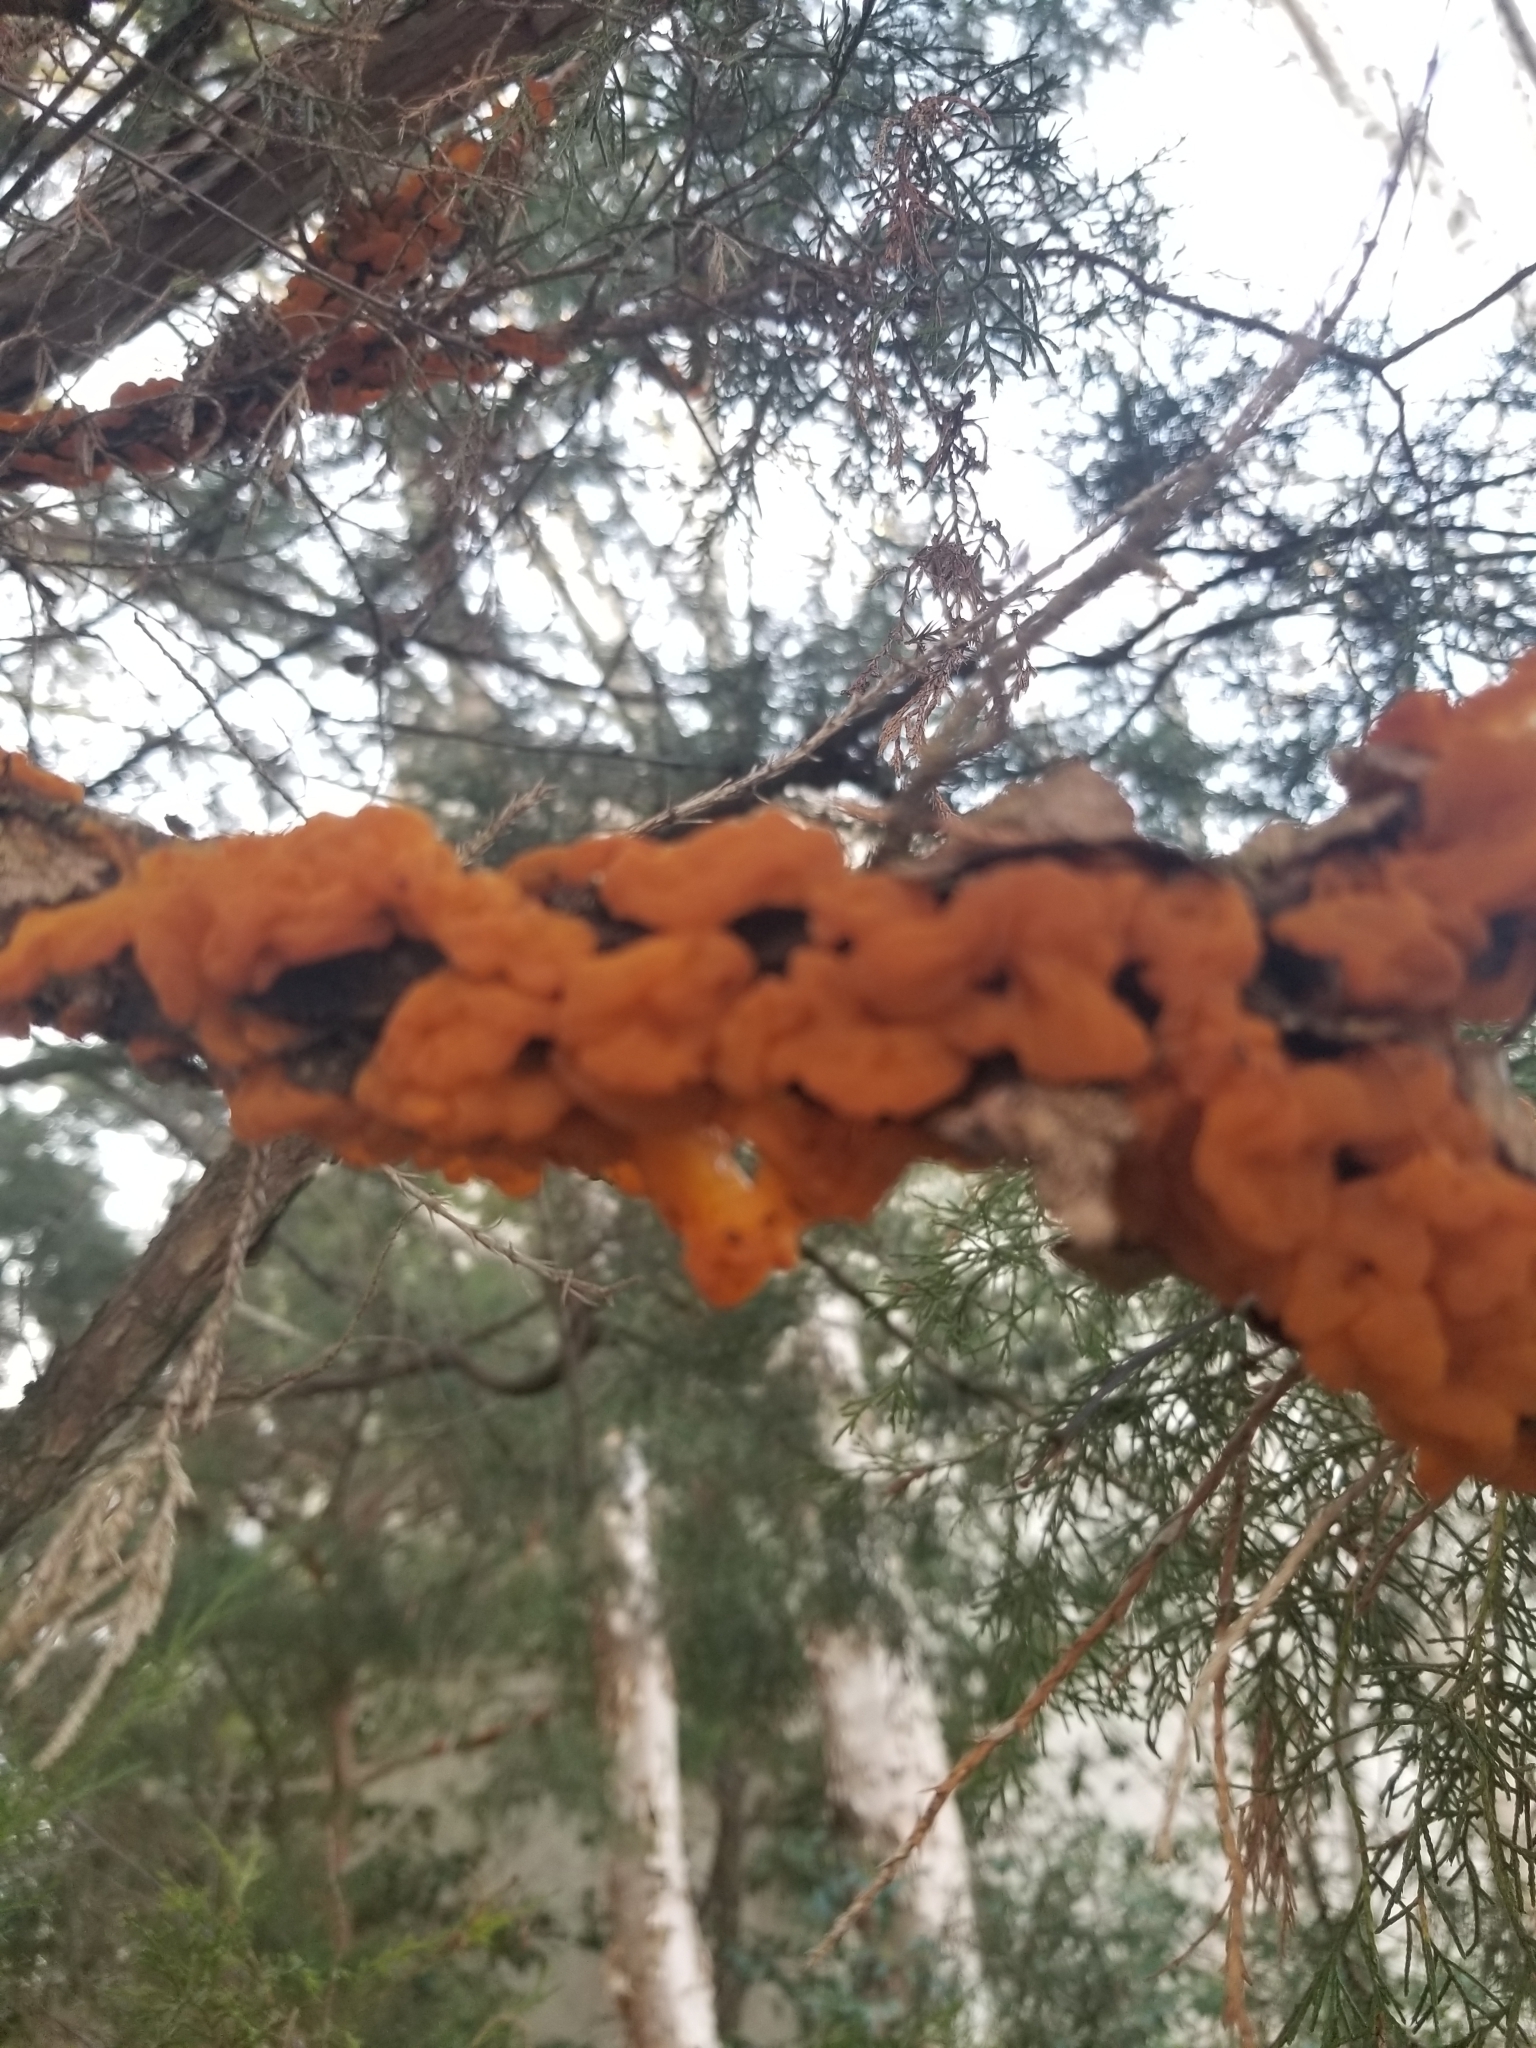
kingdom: Fungi
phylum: Basidiomycota
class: Pucciniomycetes
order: Pucciniales
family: Gymnosporangiaceae
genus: Gymnosporangium
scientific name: Gymnosporangium clavipes
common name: Quince rust
